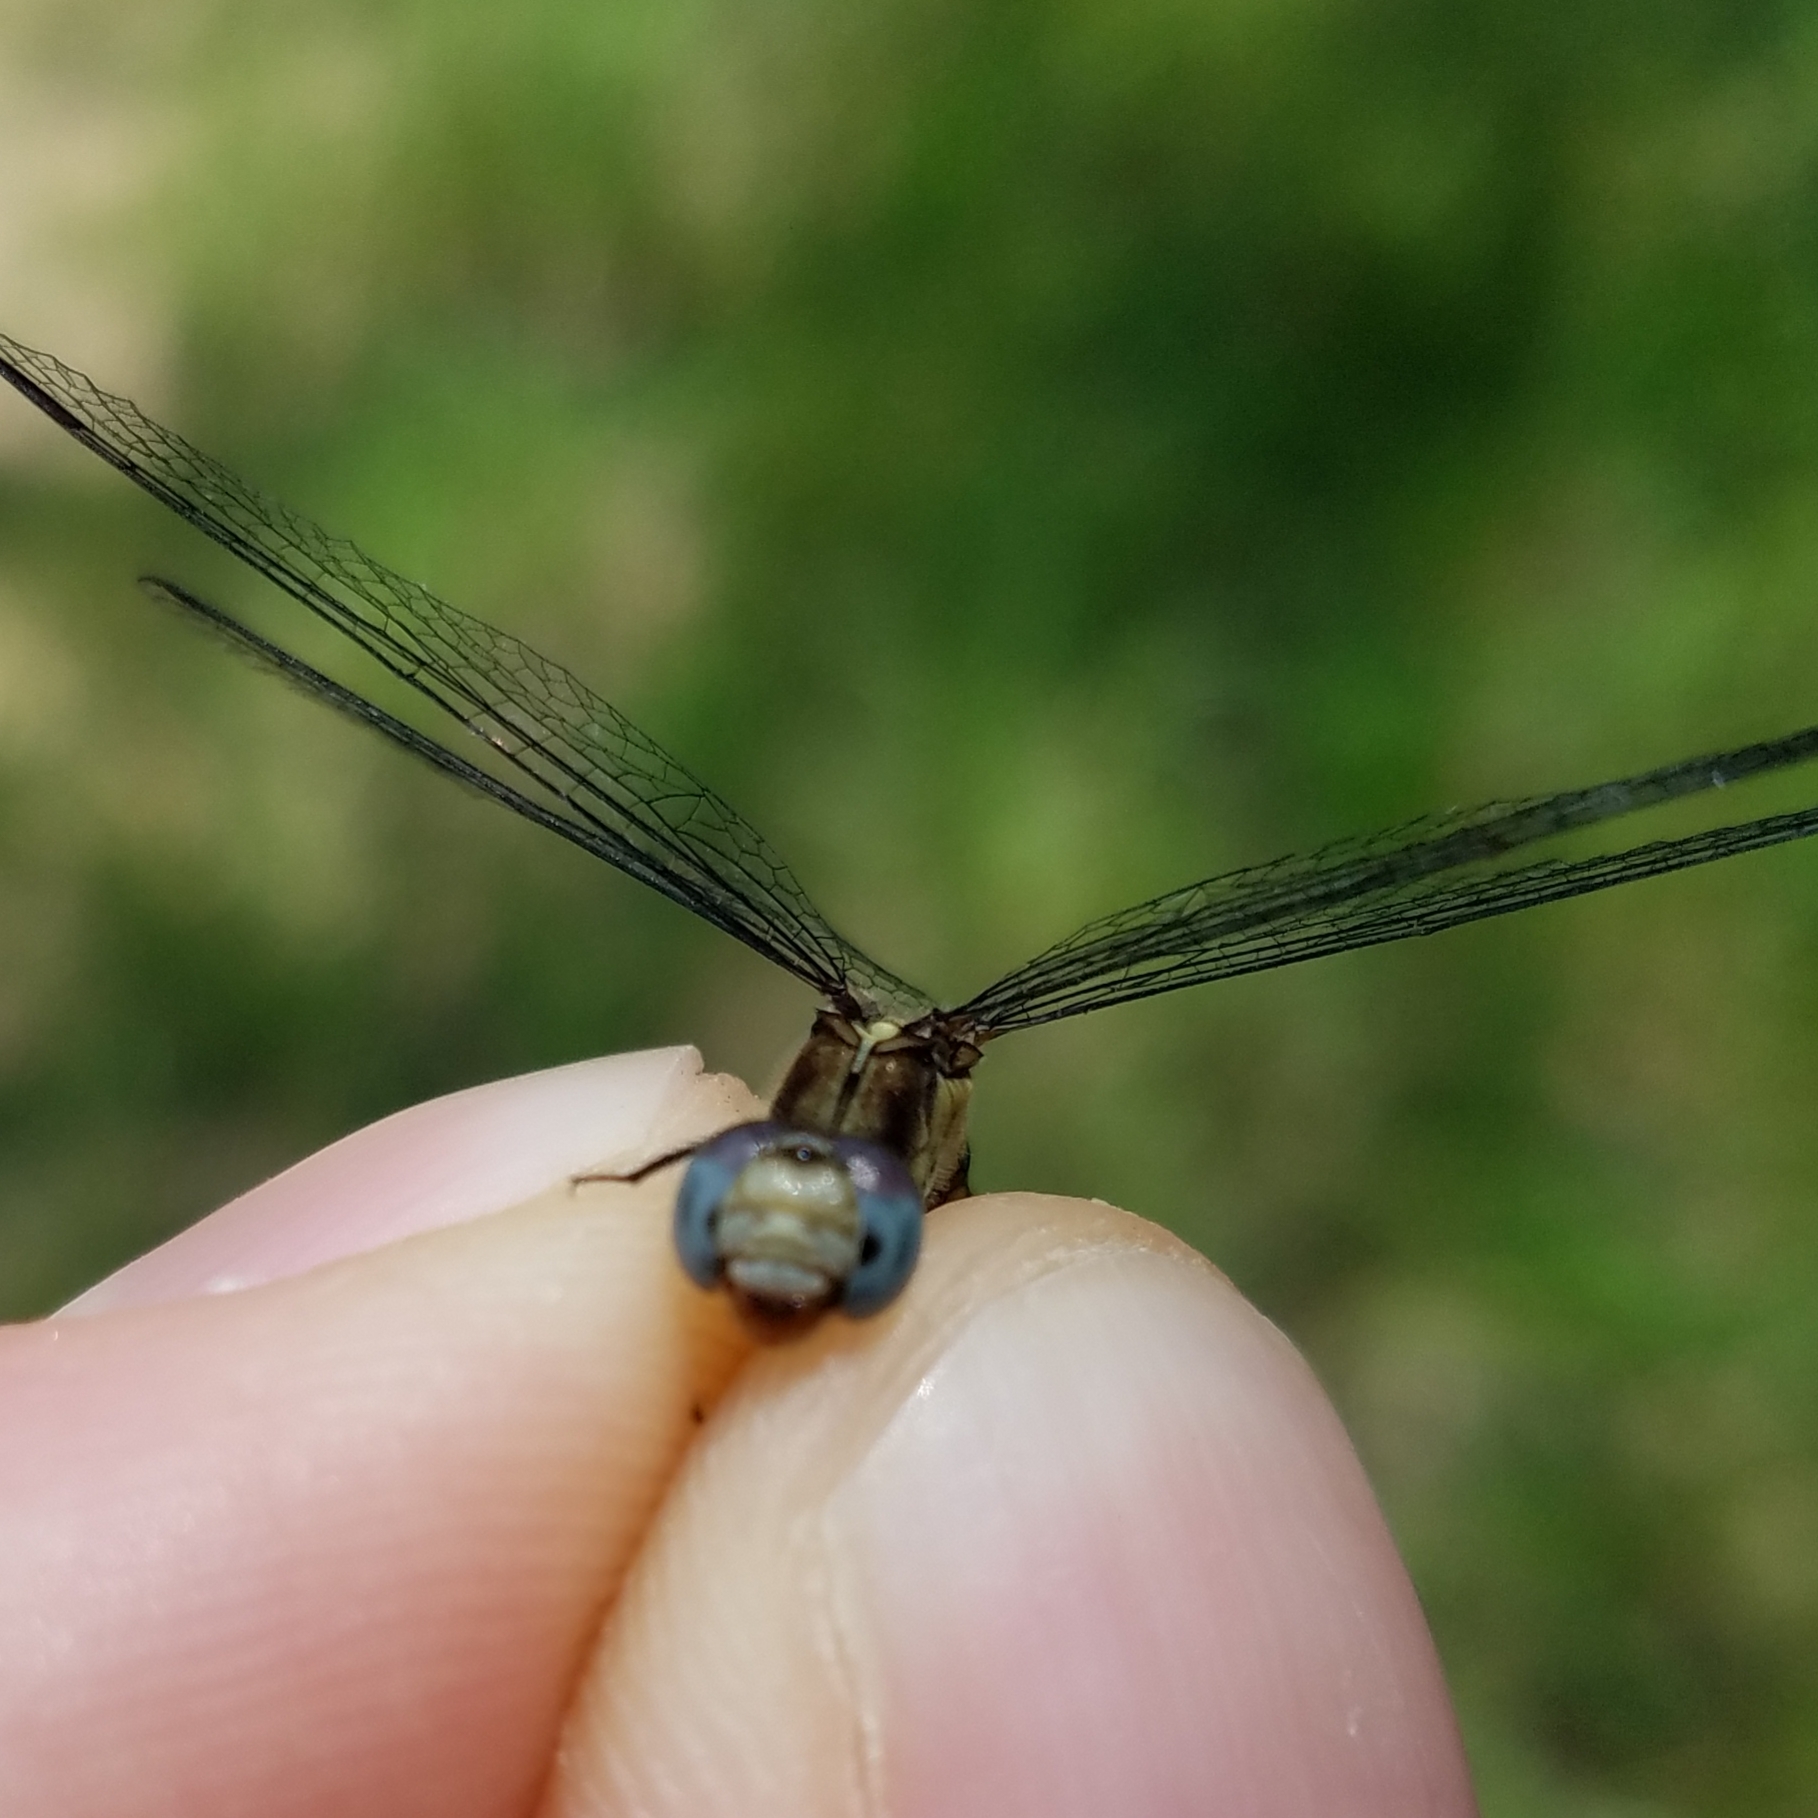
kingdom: Animalia
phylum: Arthropoda
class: Insecta
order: Odonata
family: Libellulidae
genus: Erythrodiplax
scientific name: Erythrodiplax minuscula
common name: Little blue dragonlet
